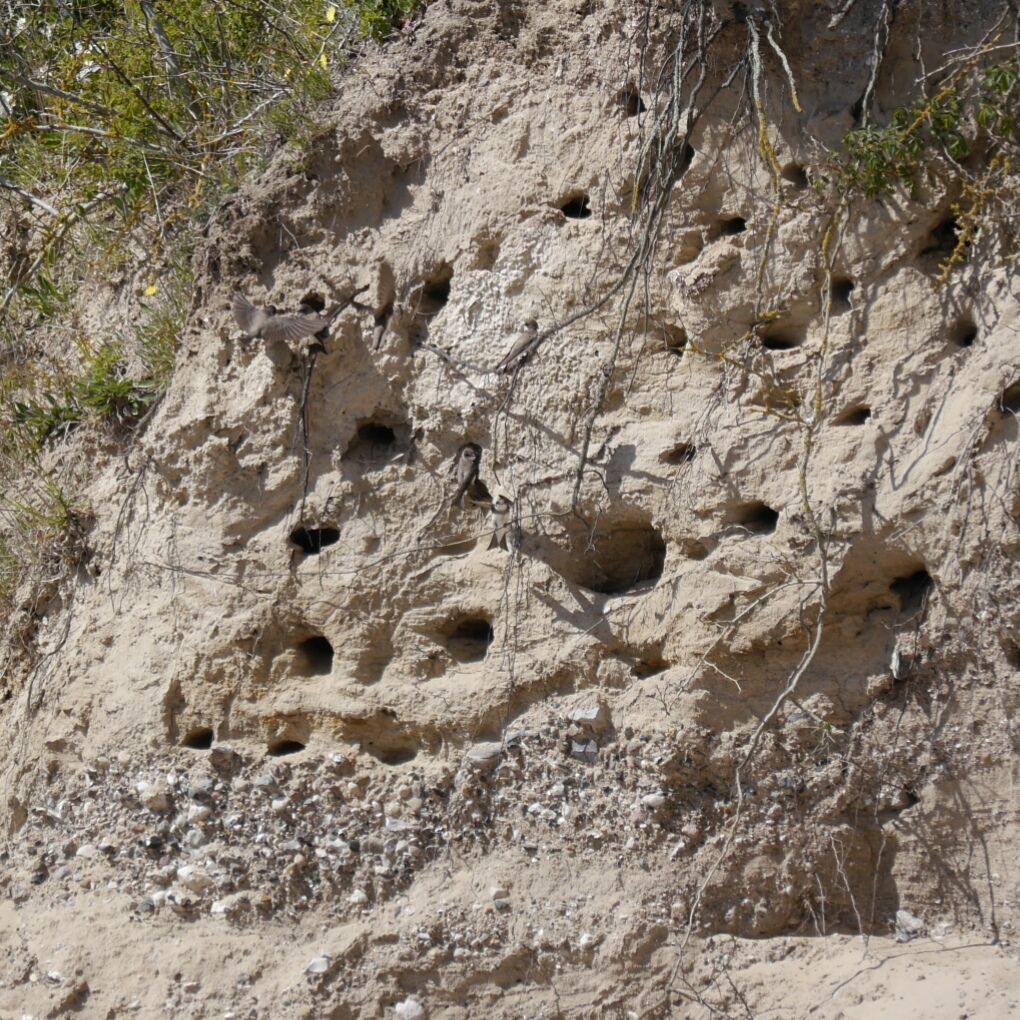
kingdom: Animalia
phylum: Chordata
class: Aves
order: Passeriformes
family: Hirundinidae
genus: Riparia
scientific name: Riparia riparia
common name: Sand martin
